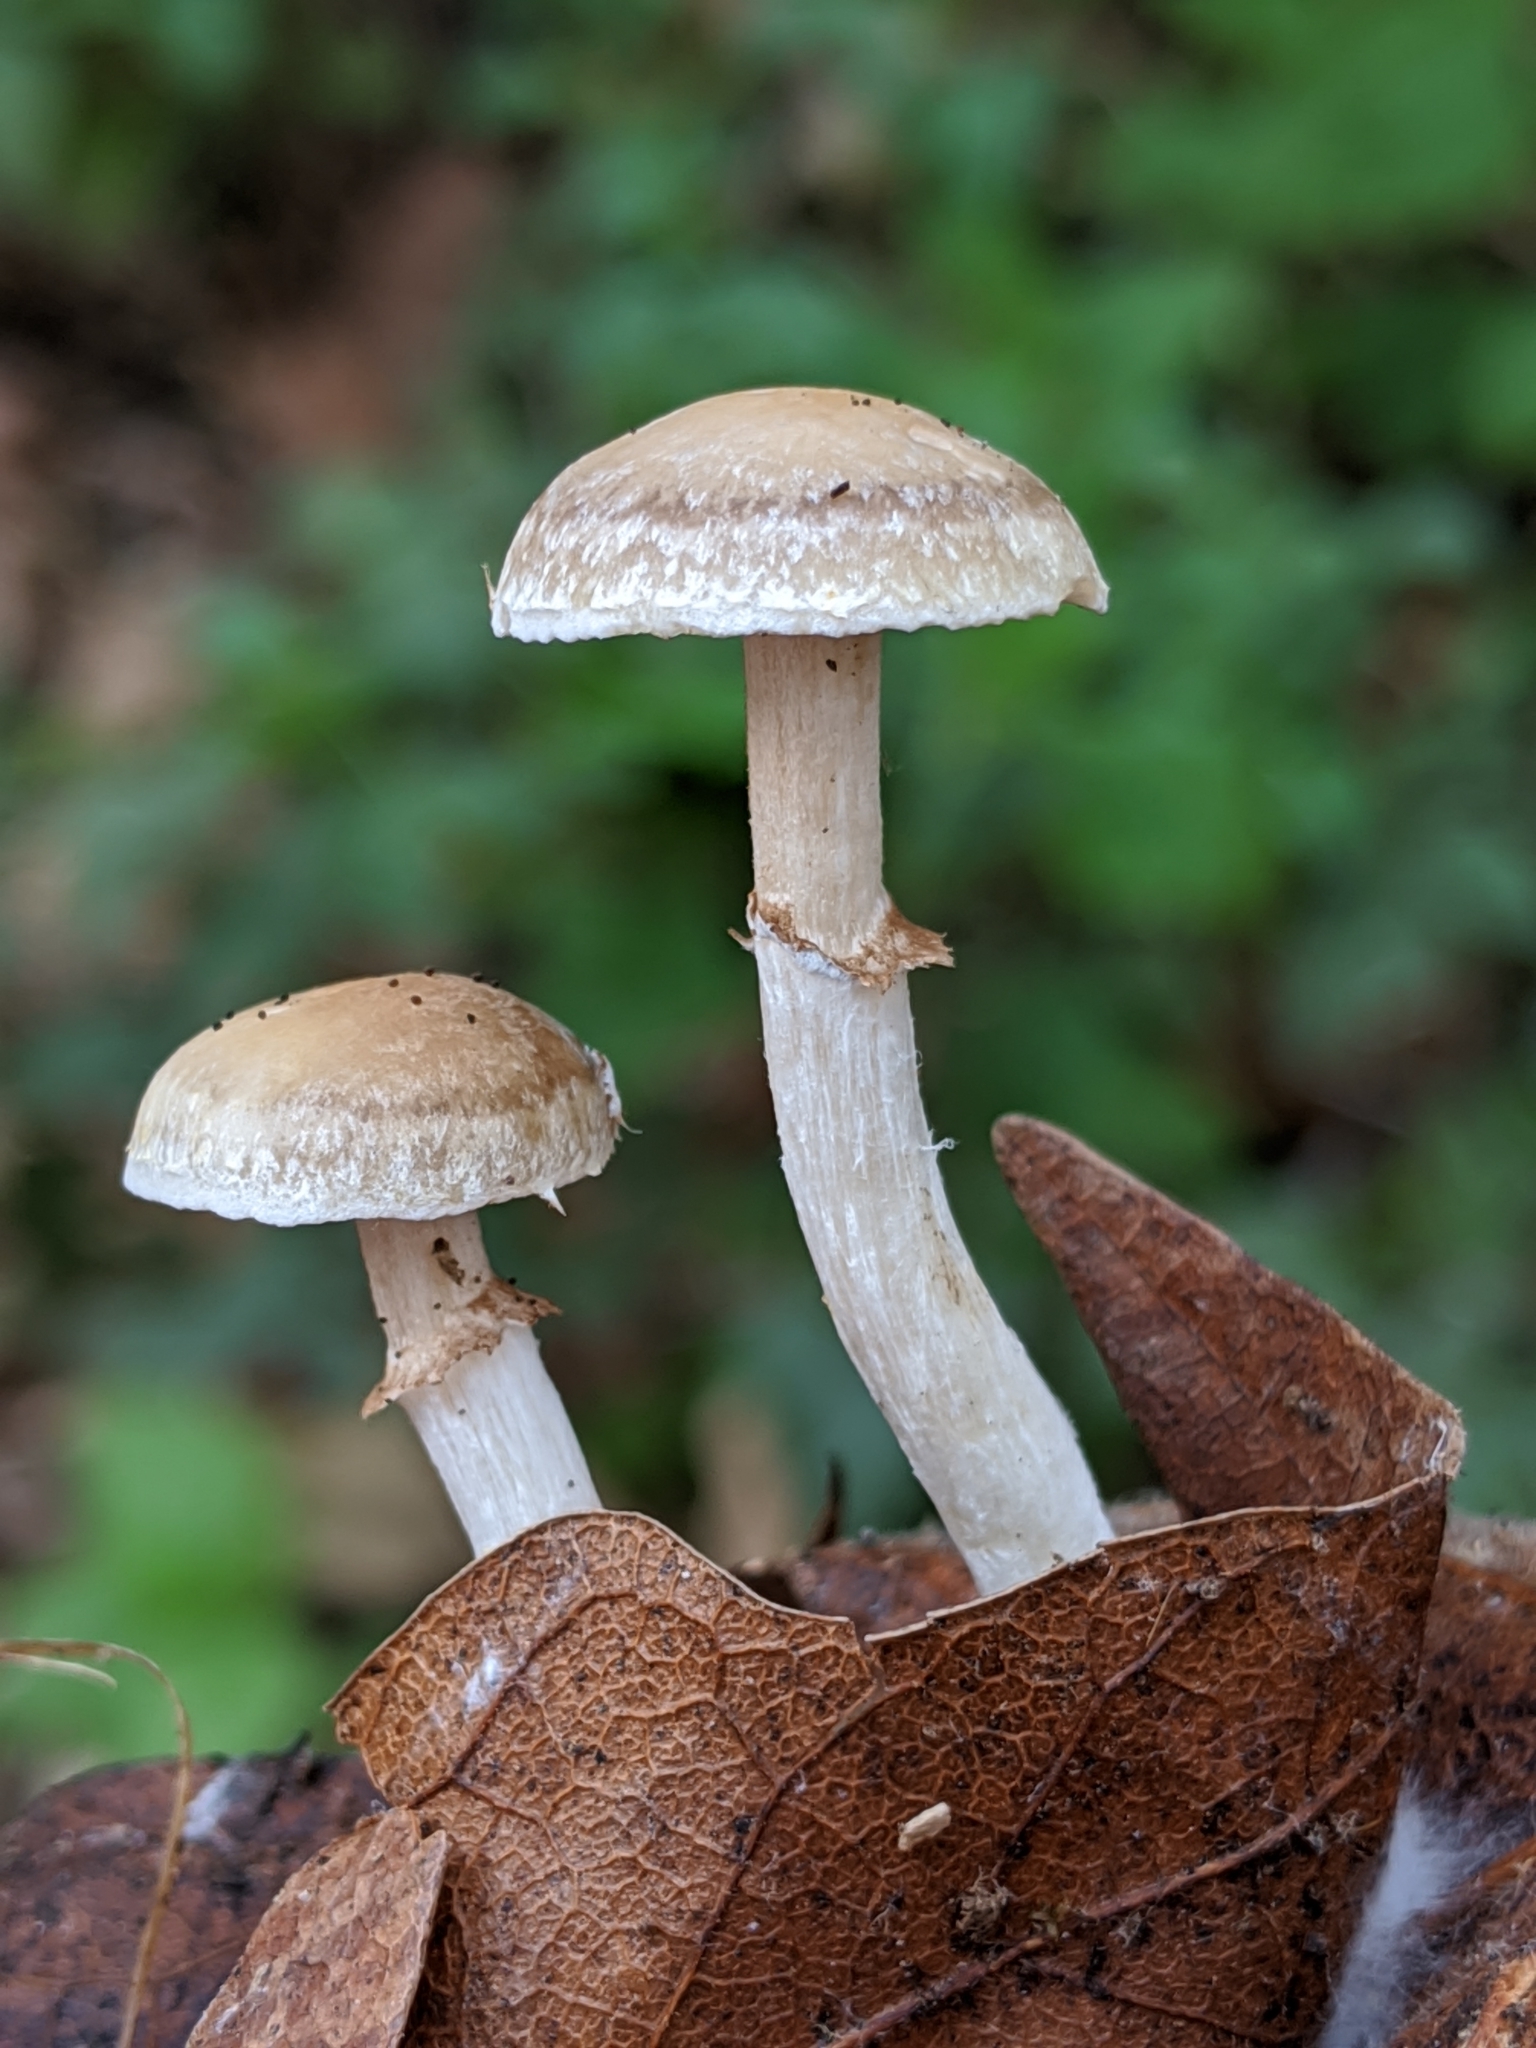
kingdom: Fungi
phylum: Basidiomycota
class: Agaricomycetes
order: Agaricales
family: Strophariaceae
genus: Meottomyces
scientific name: Meottomyces dissimulans
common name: Winter brownie
